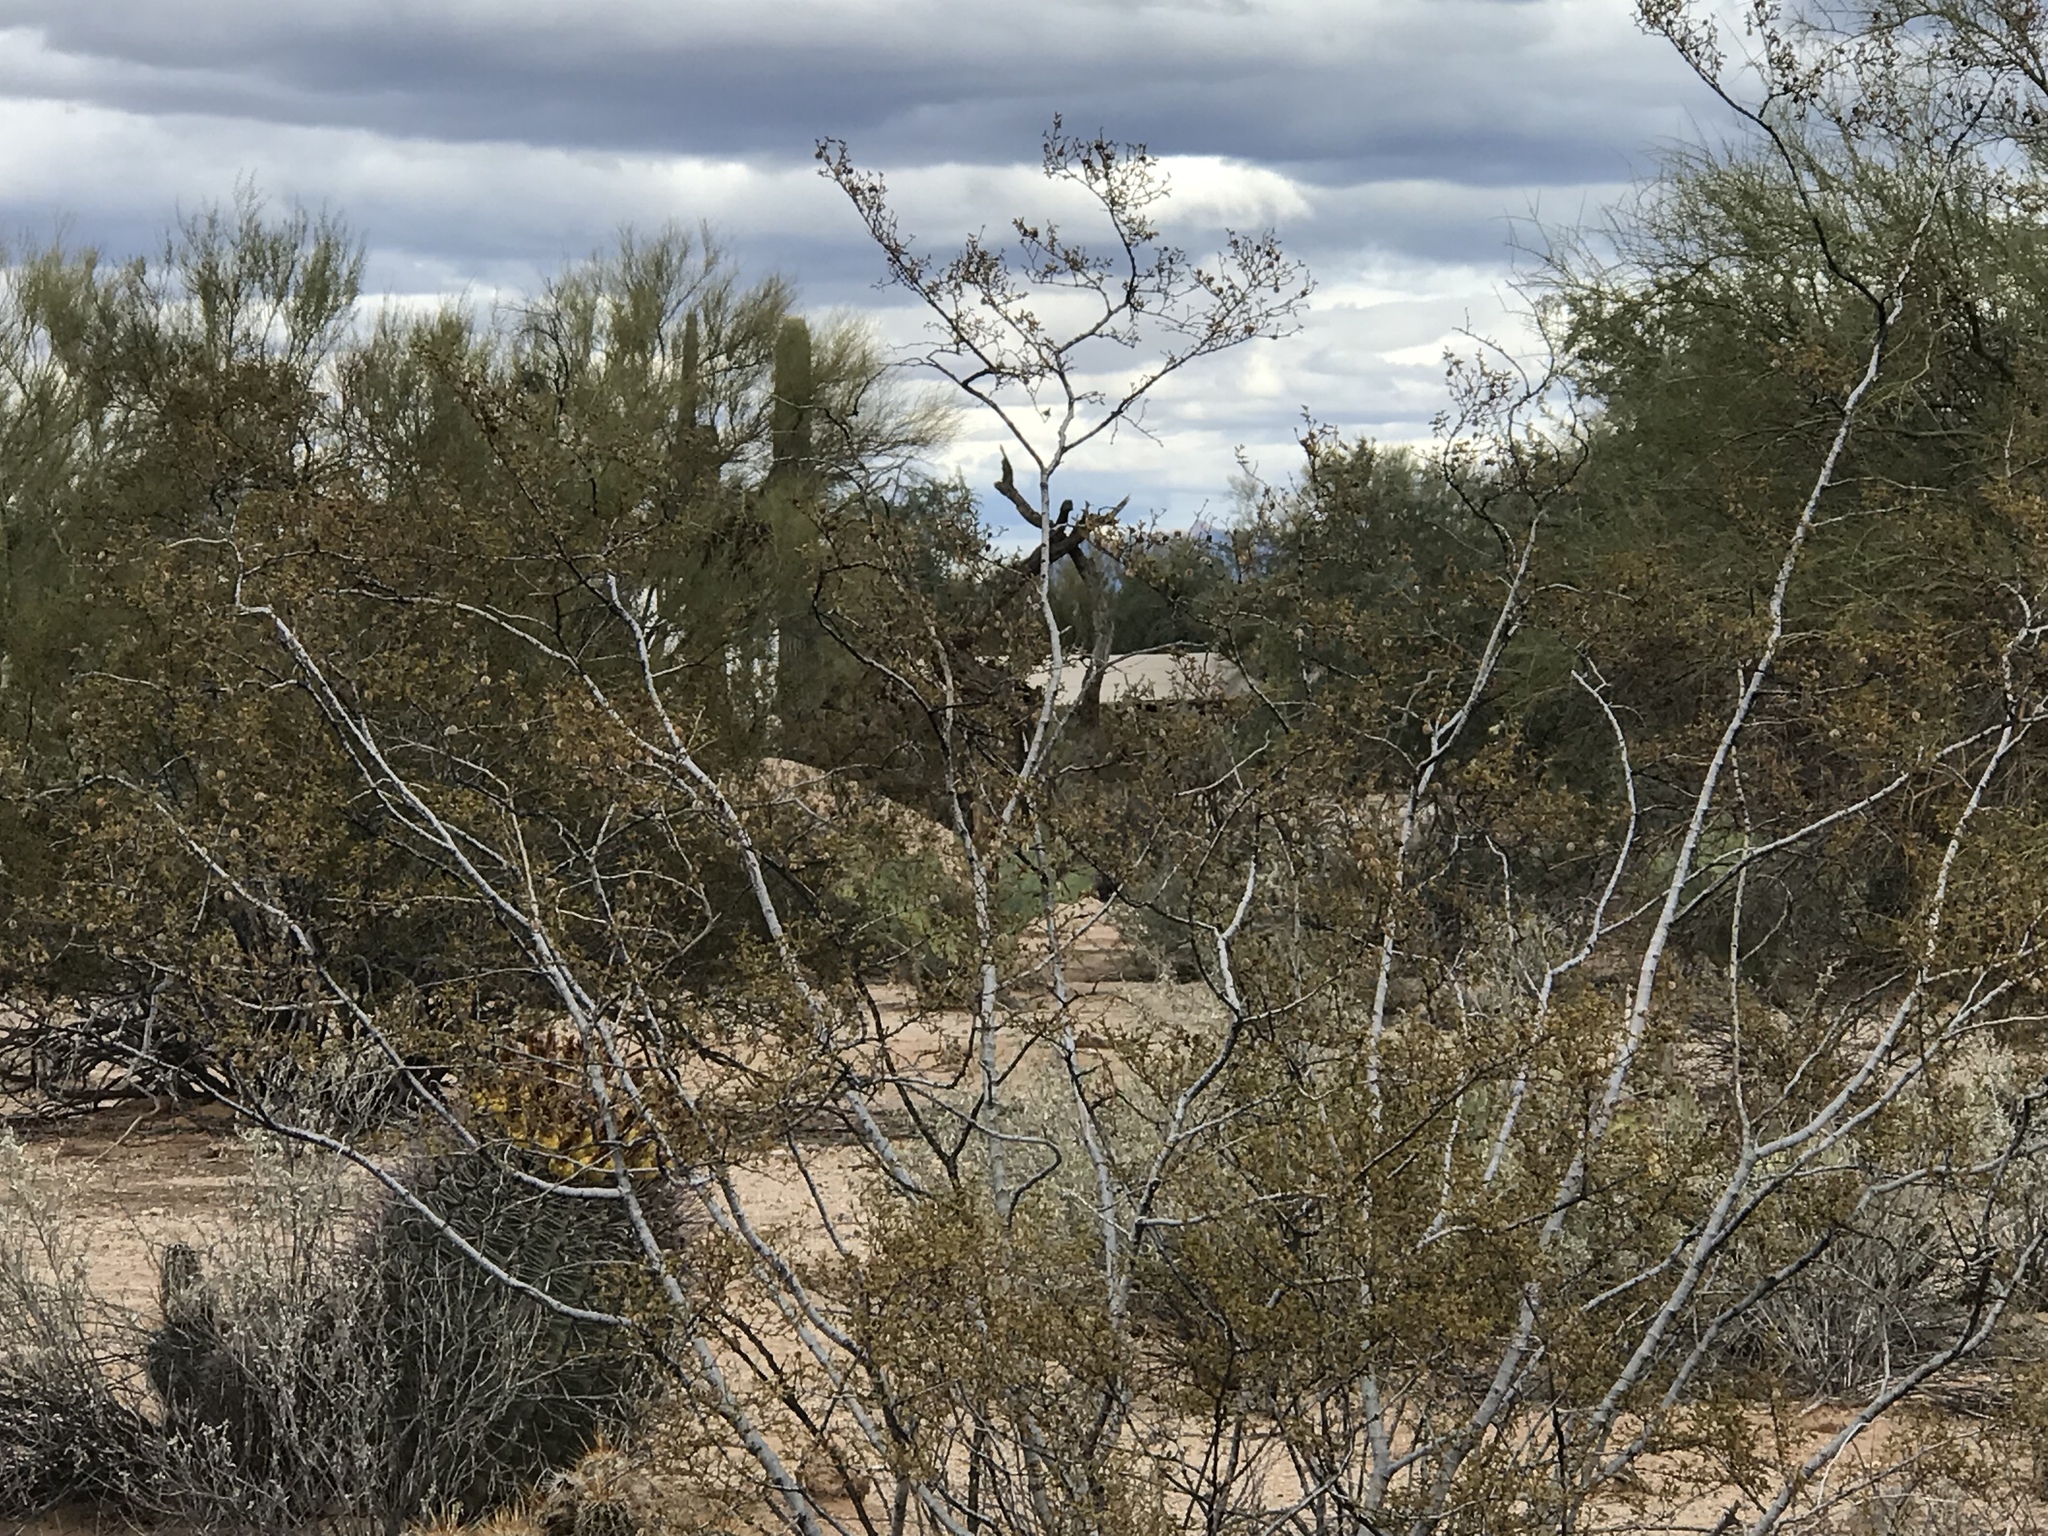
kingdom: Plantae
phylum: Tracheophyta
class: Magnoliopsida
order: Zygophyllales
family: Zygophyllaceae
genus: Larrea
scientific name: Larrea tridentata
